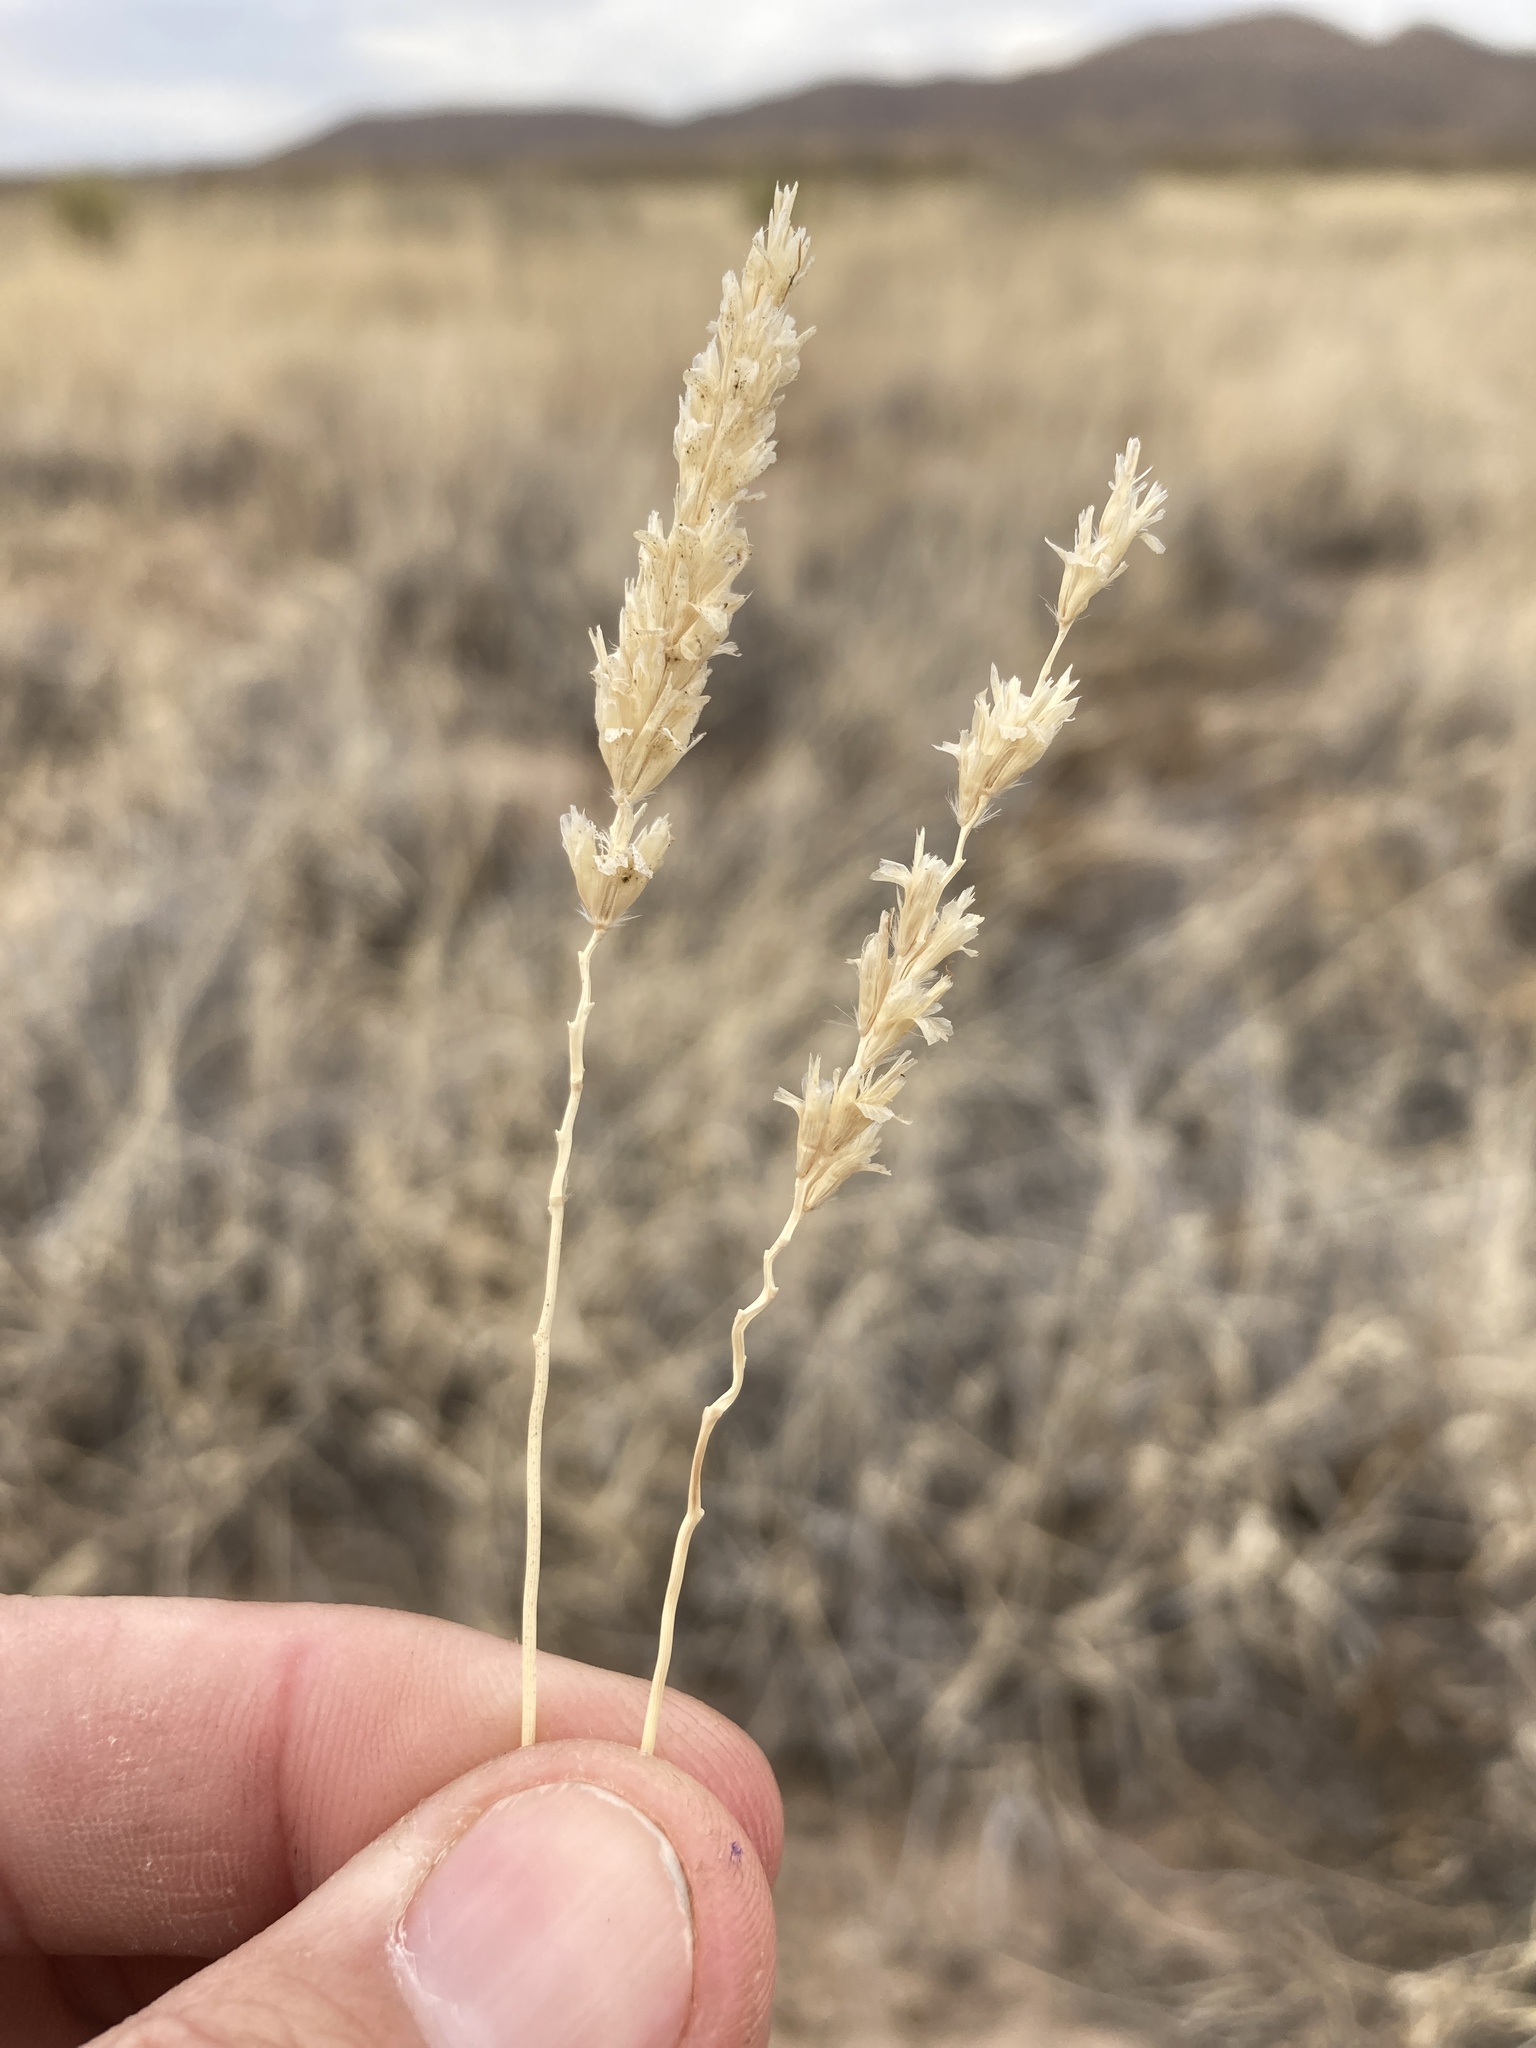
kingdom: Plantae
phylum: Tracheophyta
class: Liliopsida
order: Poales
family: Poaceae
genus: Hilaria
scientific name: Hilaria mutica
